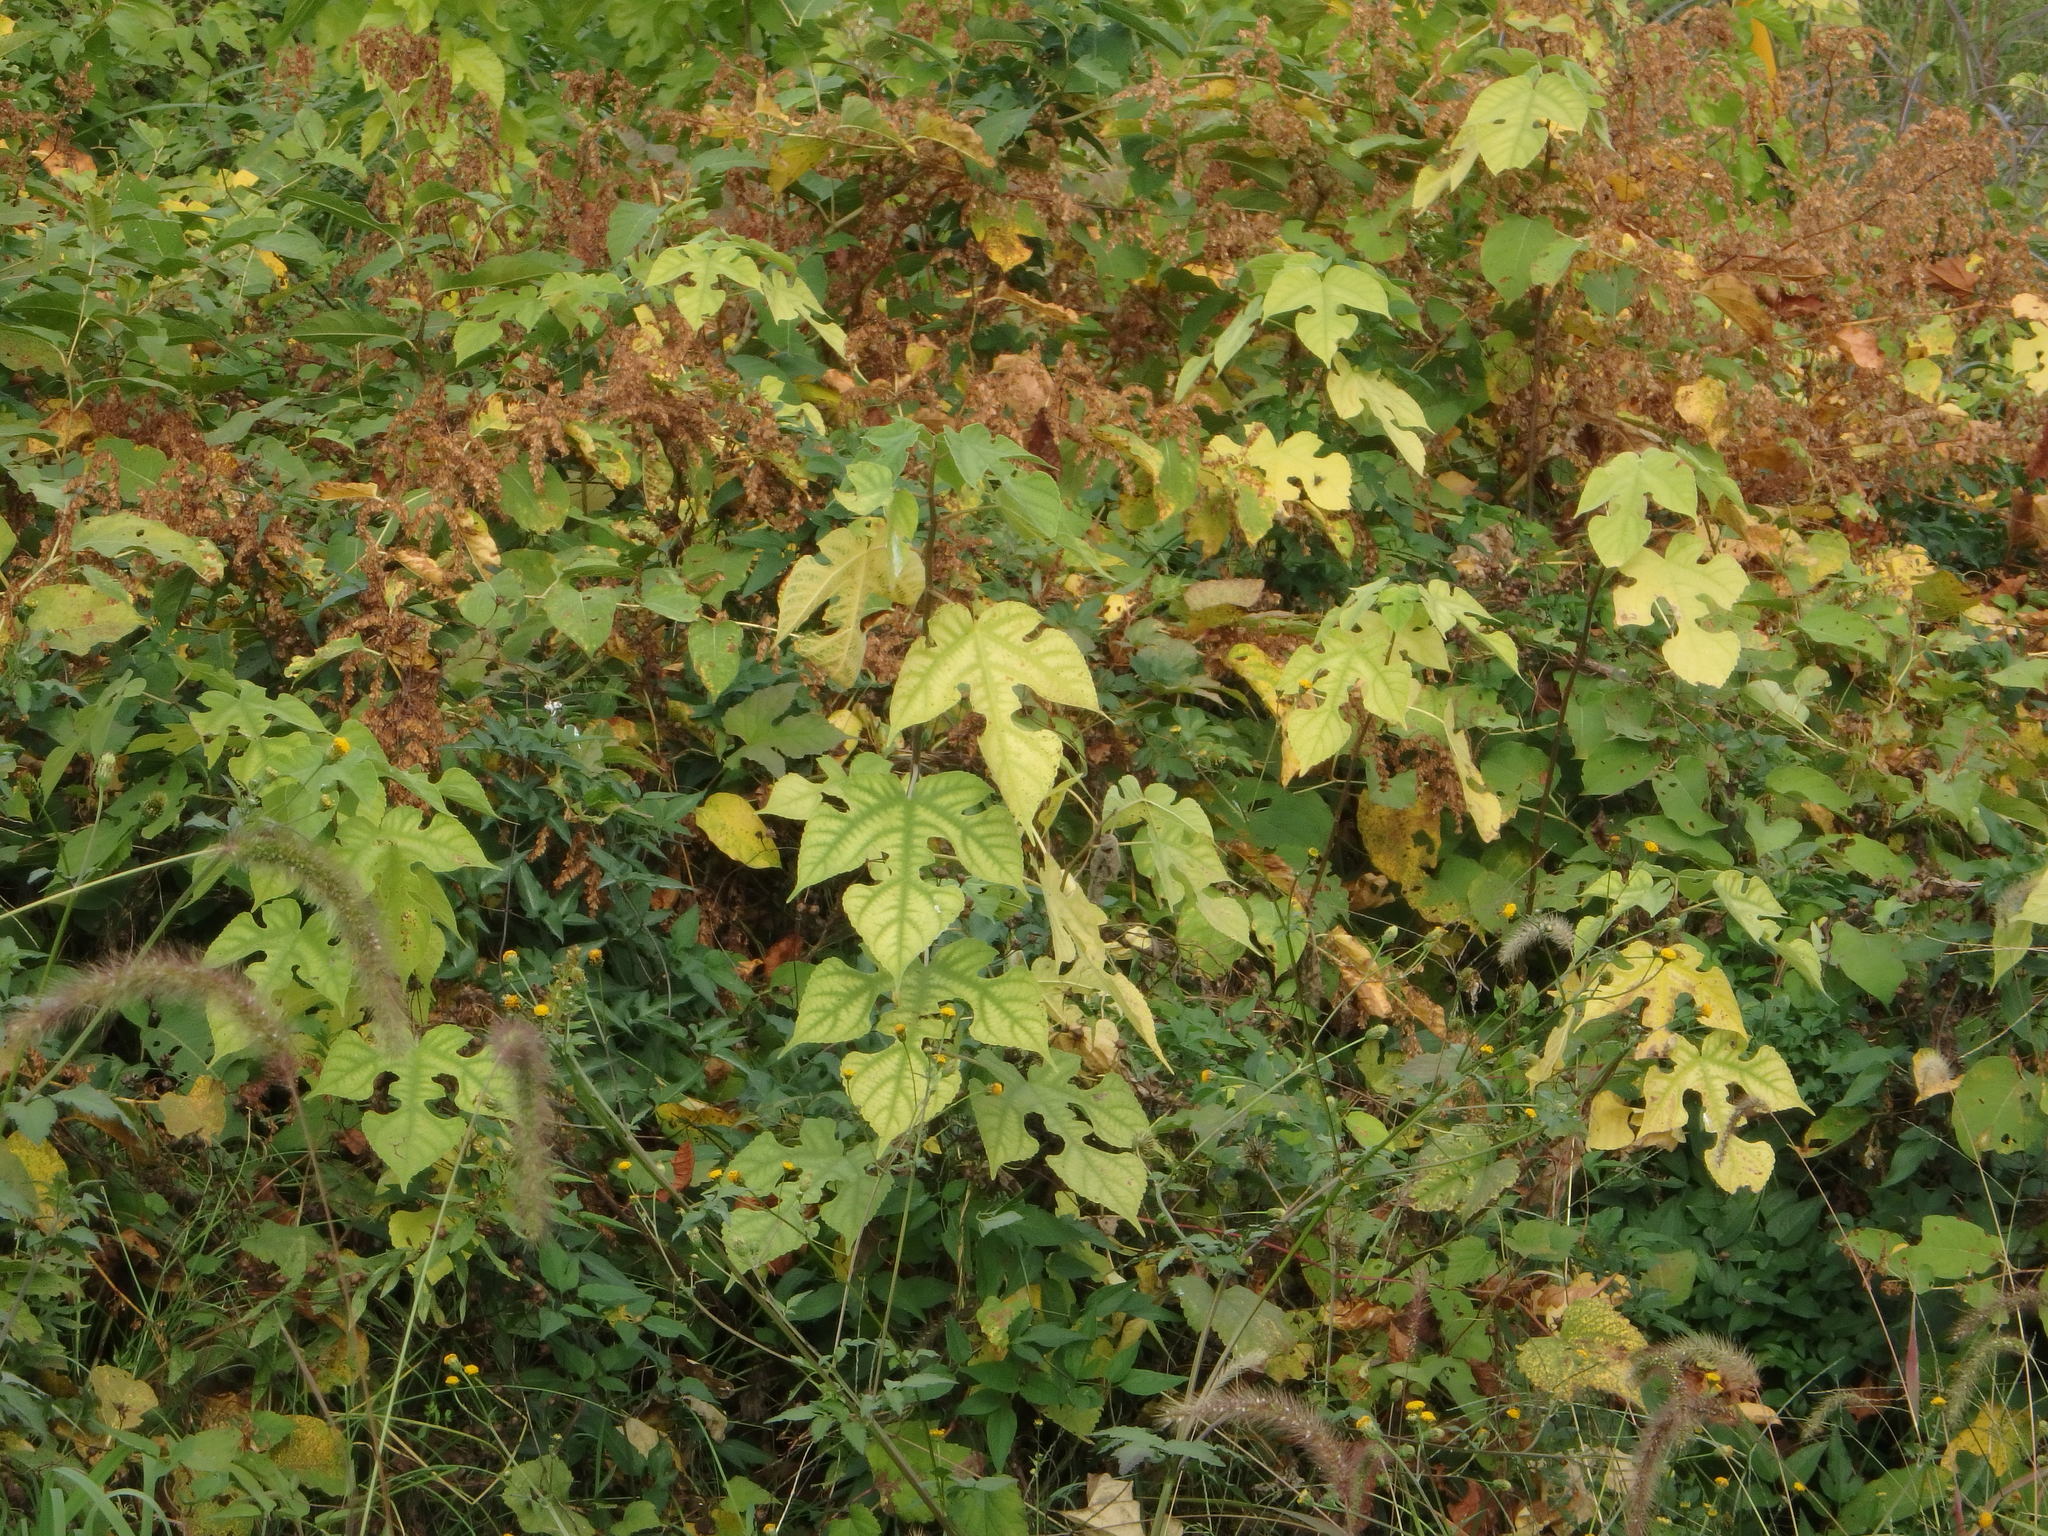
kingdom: Plantae
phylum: Tracheophyta
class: Magnoliopsida
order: Rosales
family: Moraceae
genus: Broussonetia
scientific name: Broussonetia papyrifera
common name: Paper mulberry
